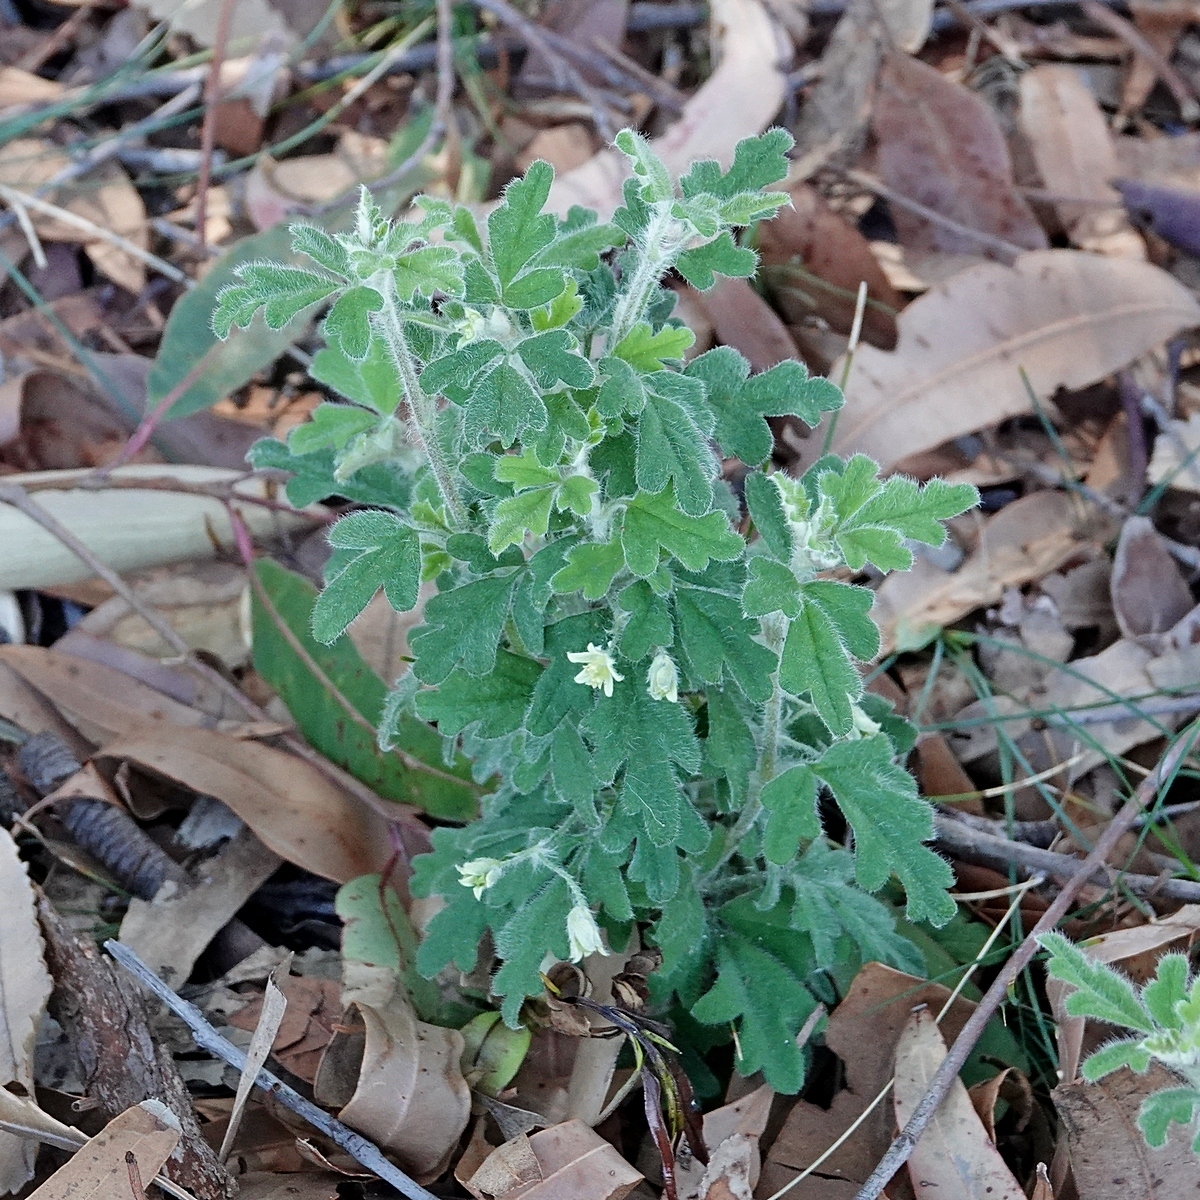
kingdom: Plantae
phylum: Tracheophyta
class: Magnoliopsida
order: Apiales
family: Apiaceae
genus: Xanthosia
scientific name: Xanthosia pilosa
